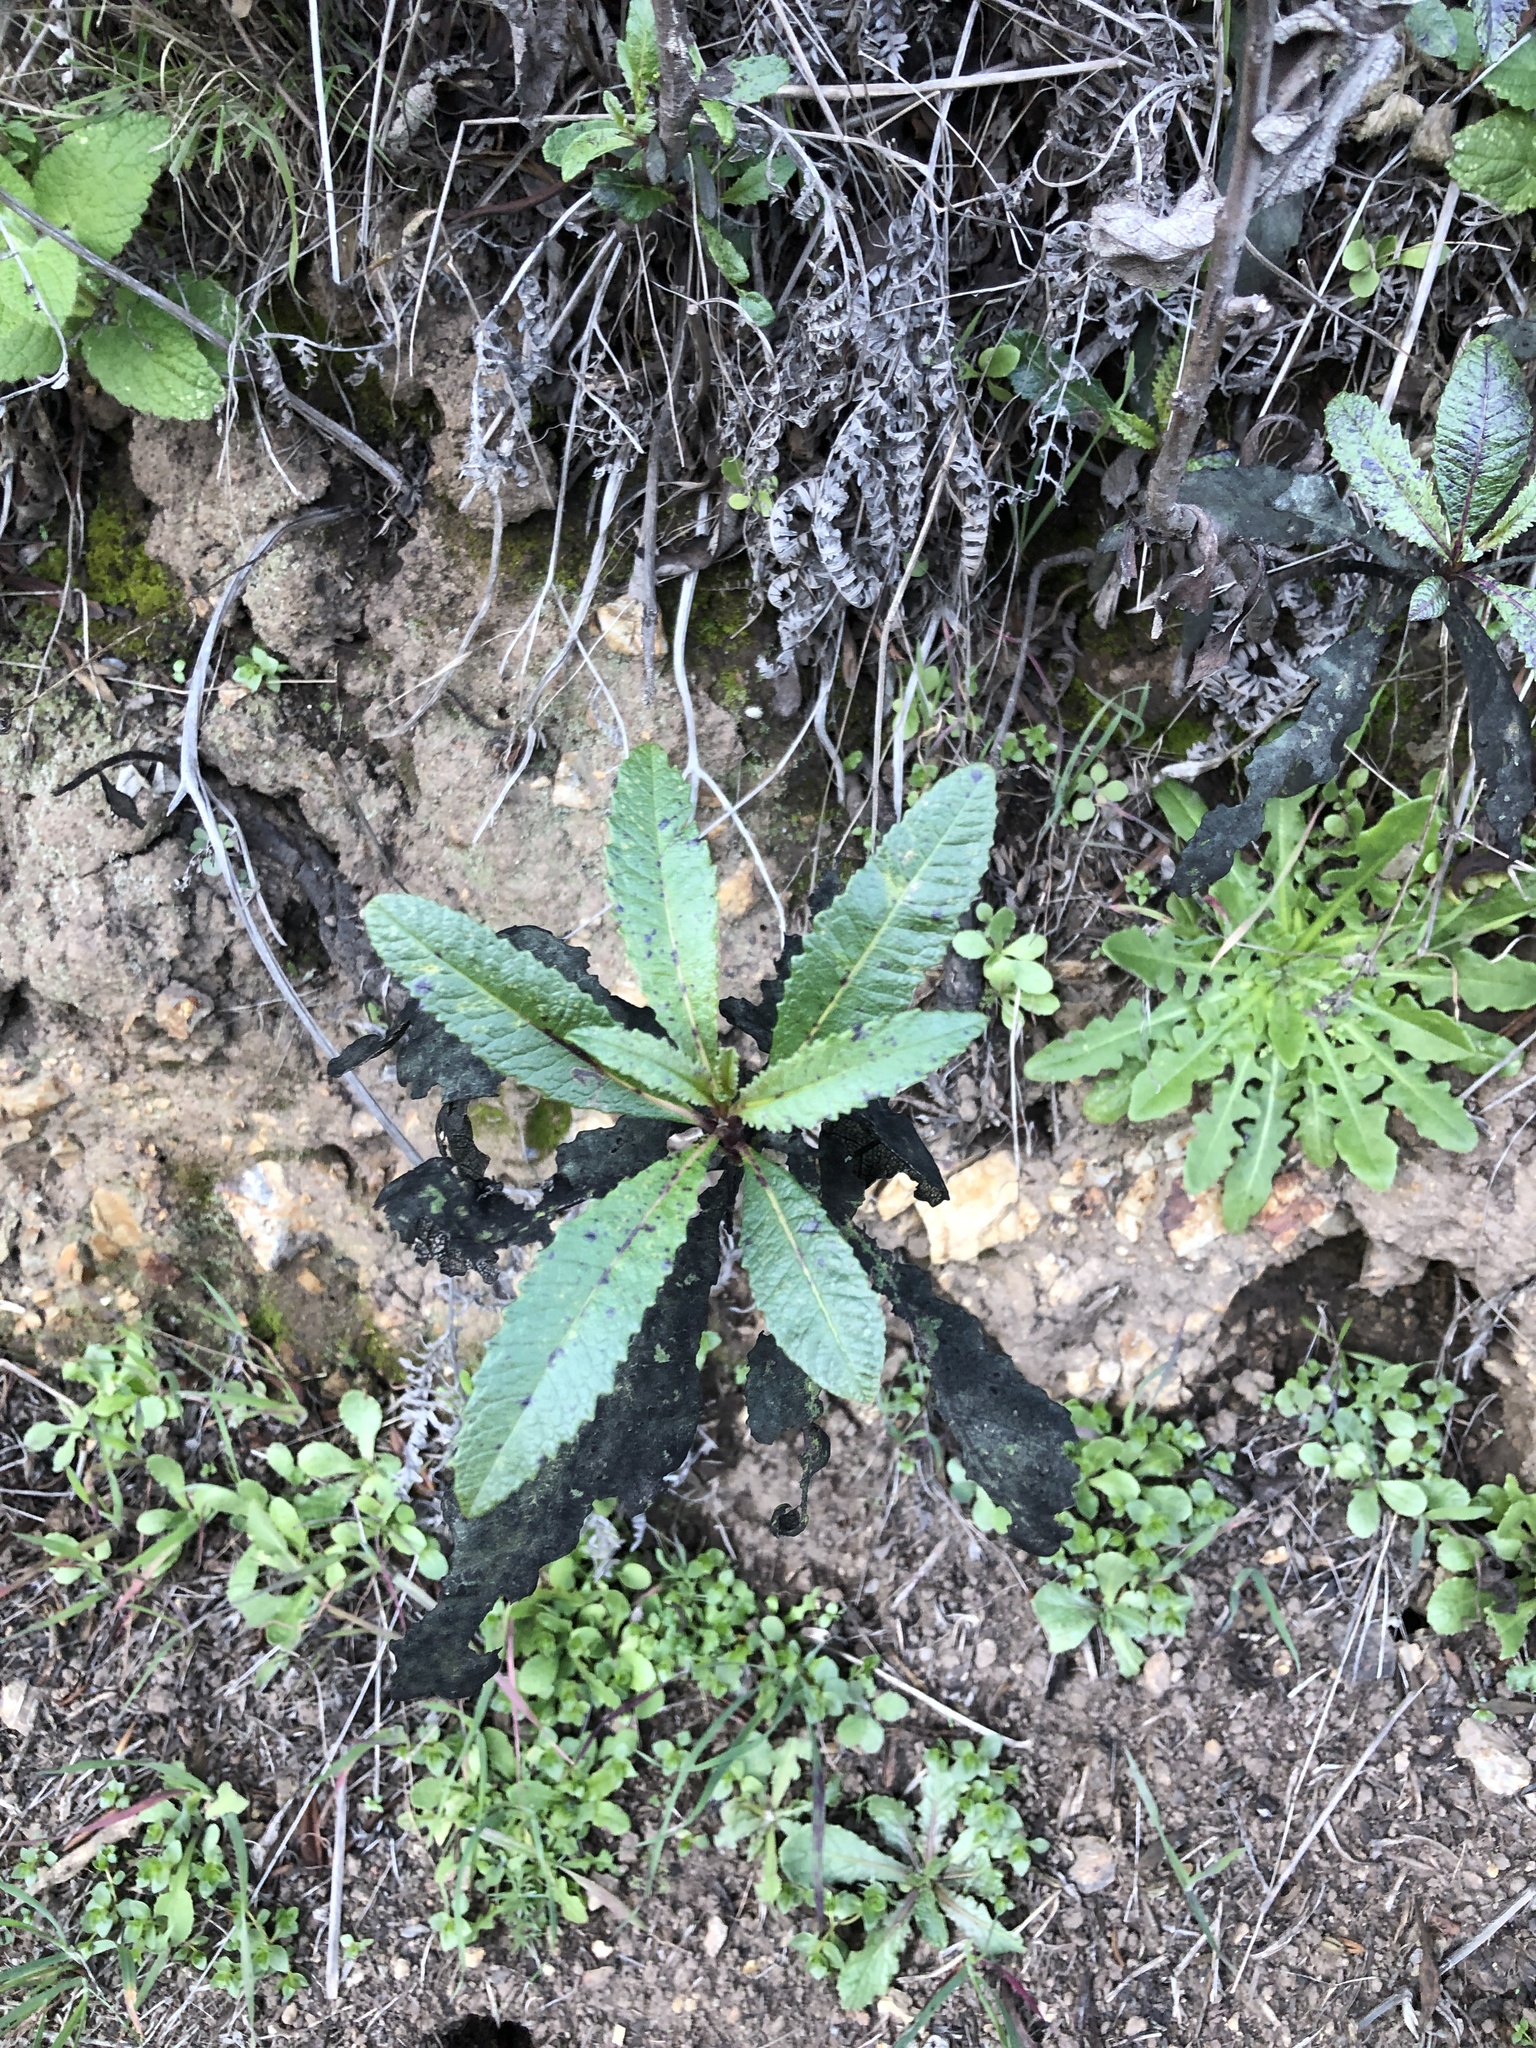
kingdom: Plantae
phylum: Tracheophyta
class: Magnoliopsida
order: Boraginales
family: Namaceae
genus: Eriodictyon
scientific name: Eriodictyon californicum
